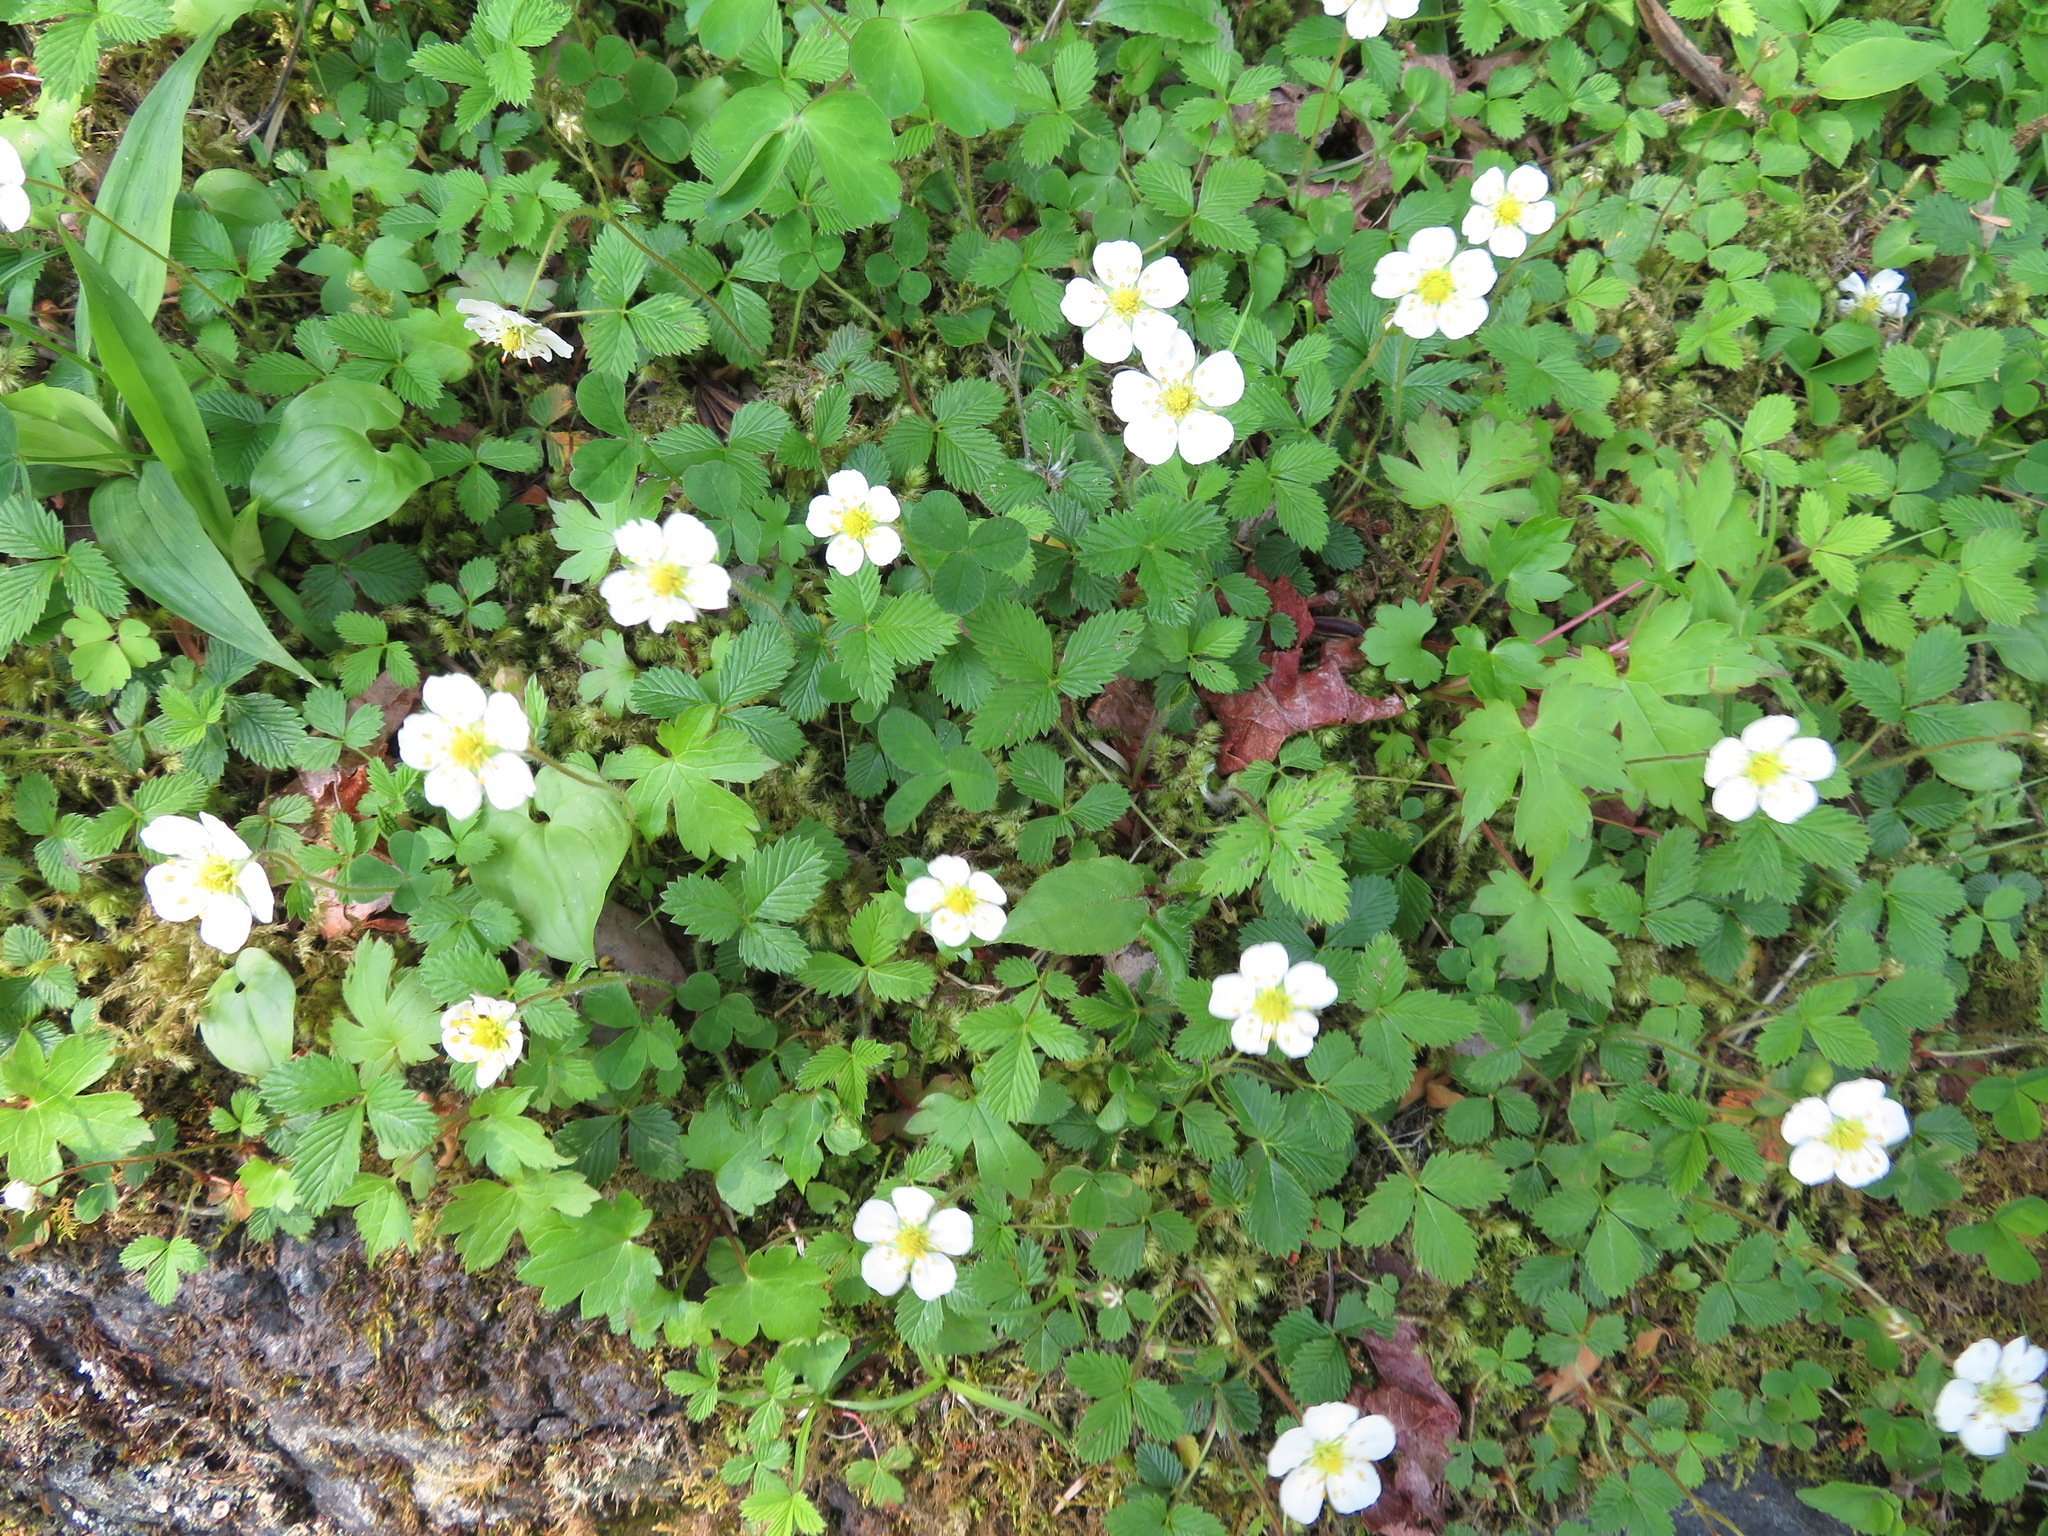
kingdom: Plantae
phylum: Tracheophyta
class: Magnoliopsida
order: Rosales
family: Rosaceae
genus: Fragaria
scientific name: Fragaria nipponica
